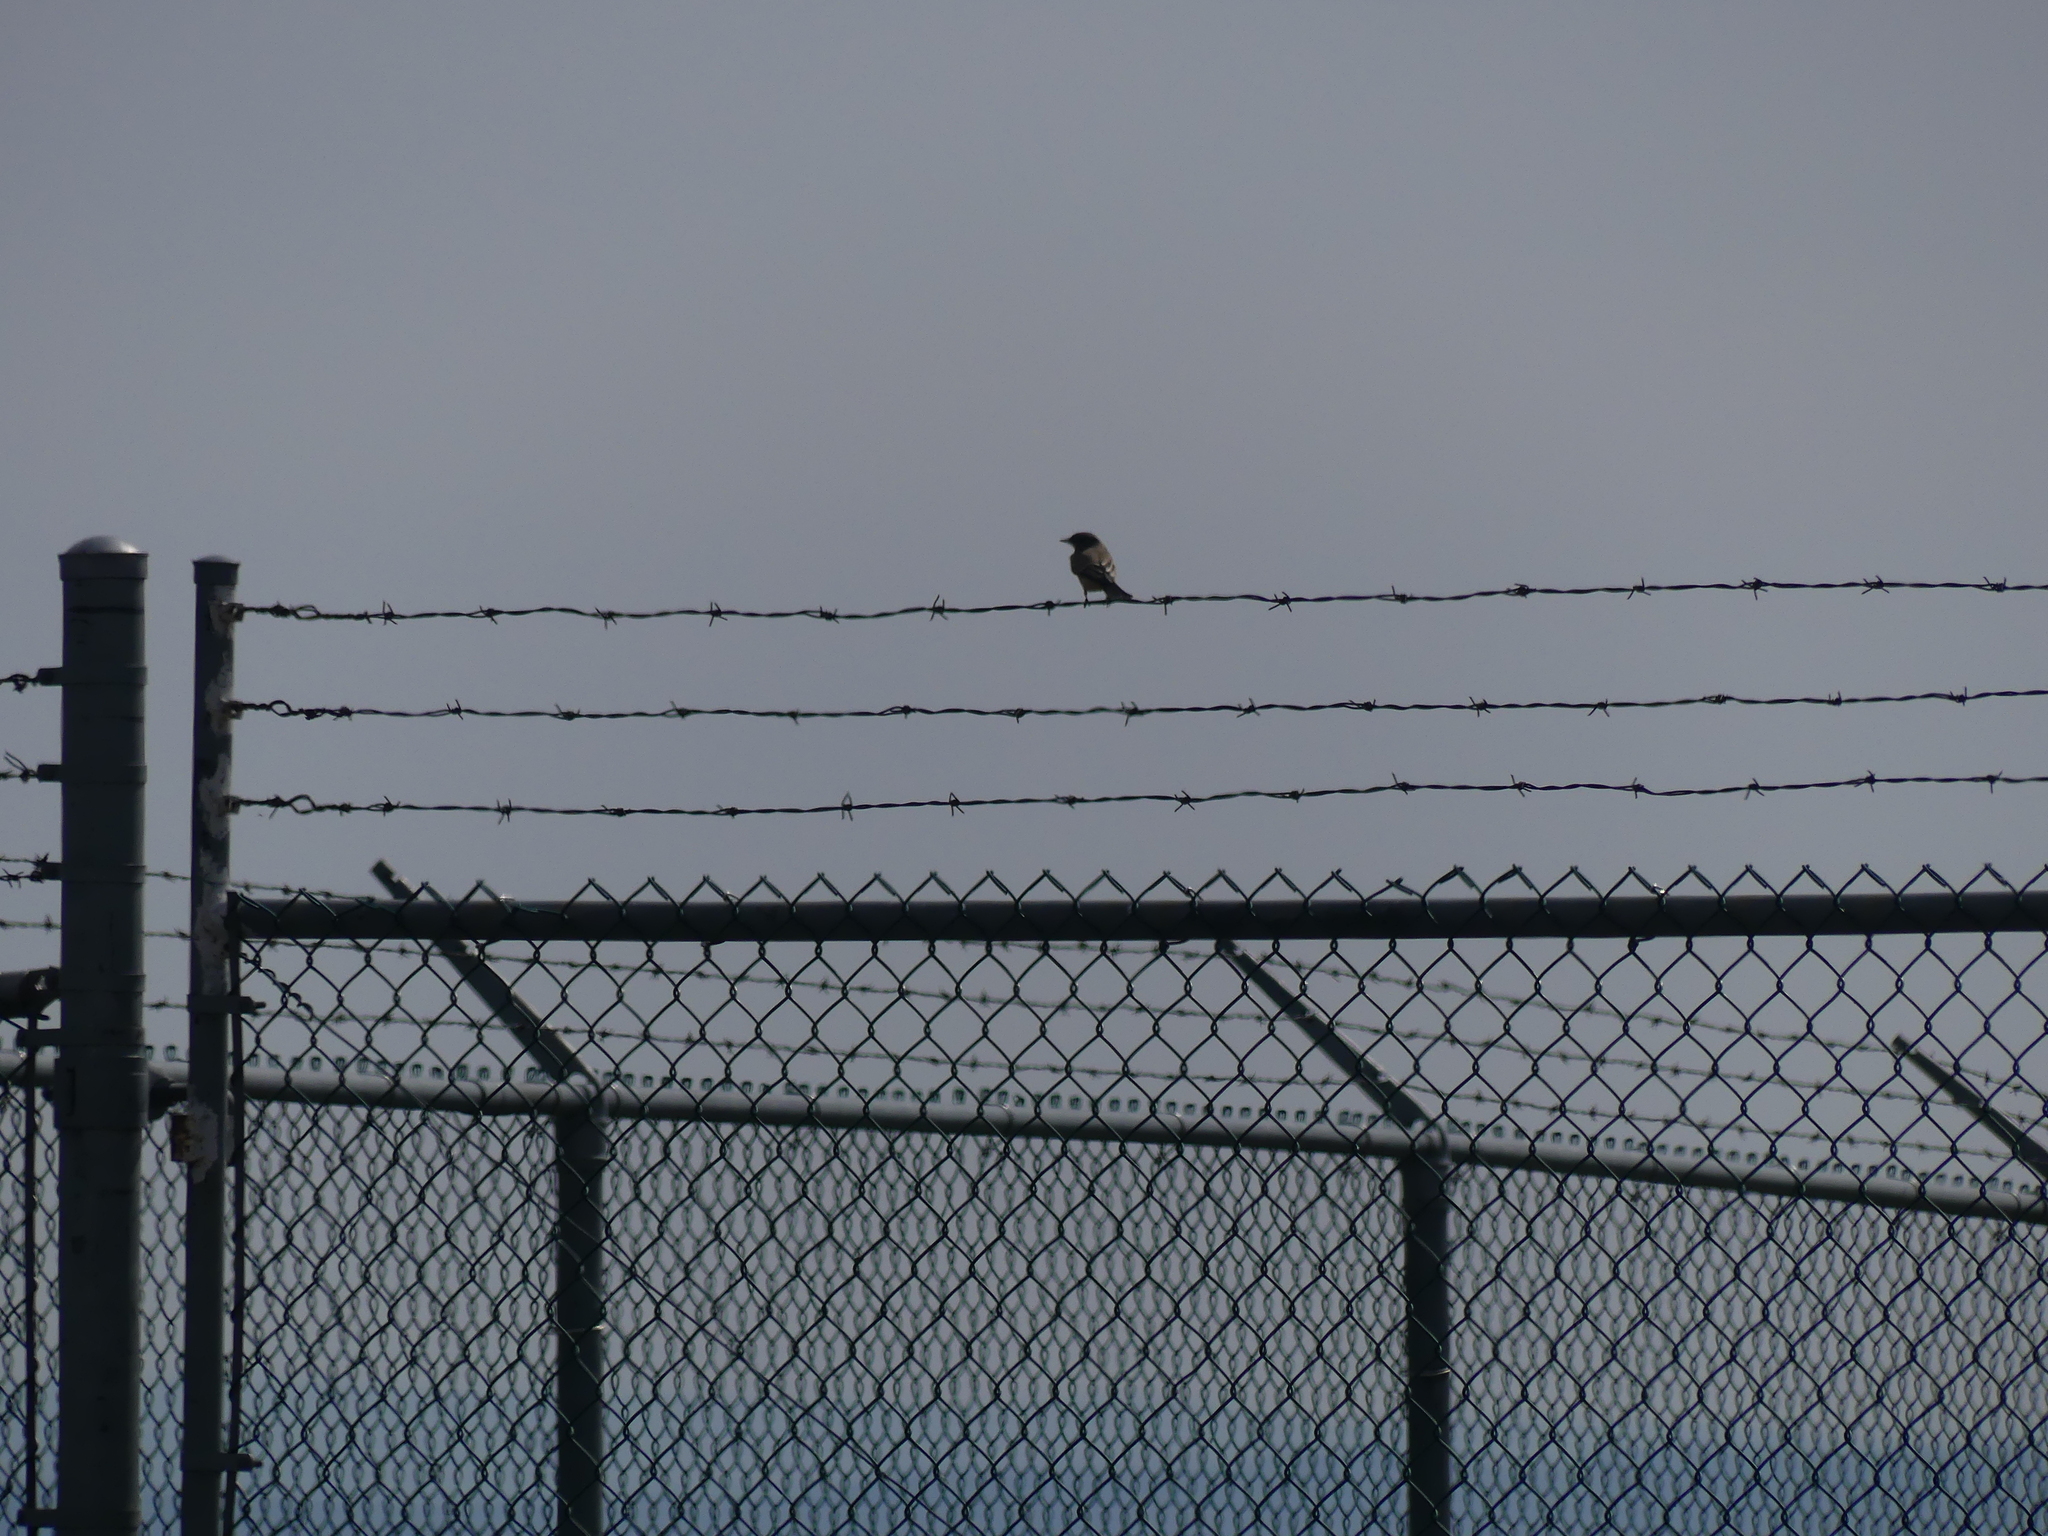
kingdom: Animalia
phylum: Chordata
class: Aves
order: Passeriformes
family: Tyrannidae
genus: Sayornis
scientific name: Sayornis saya
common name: Say's phoebe
